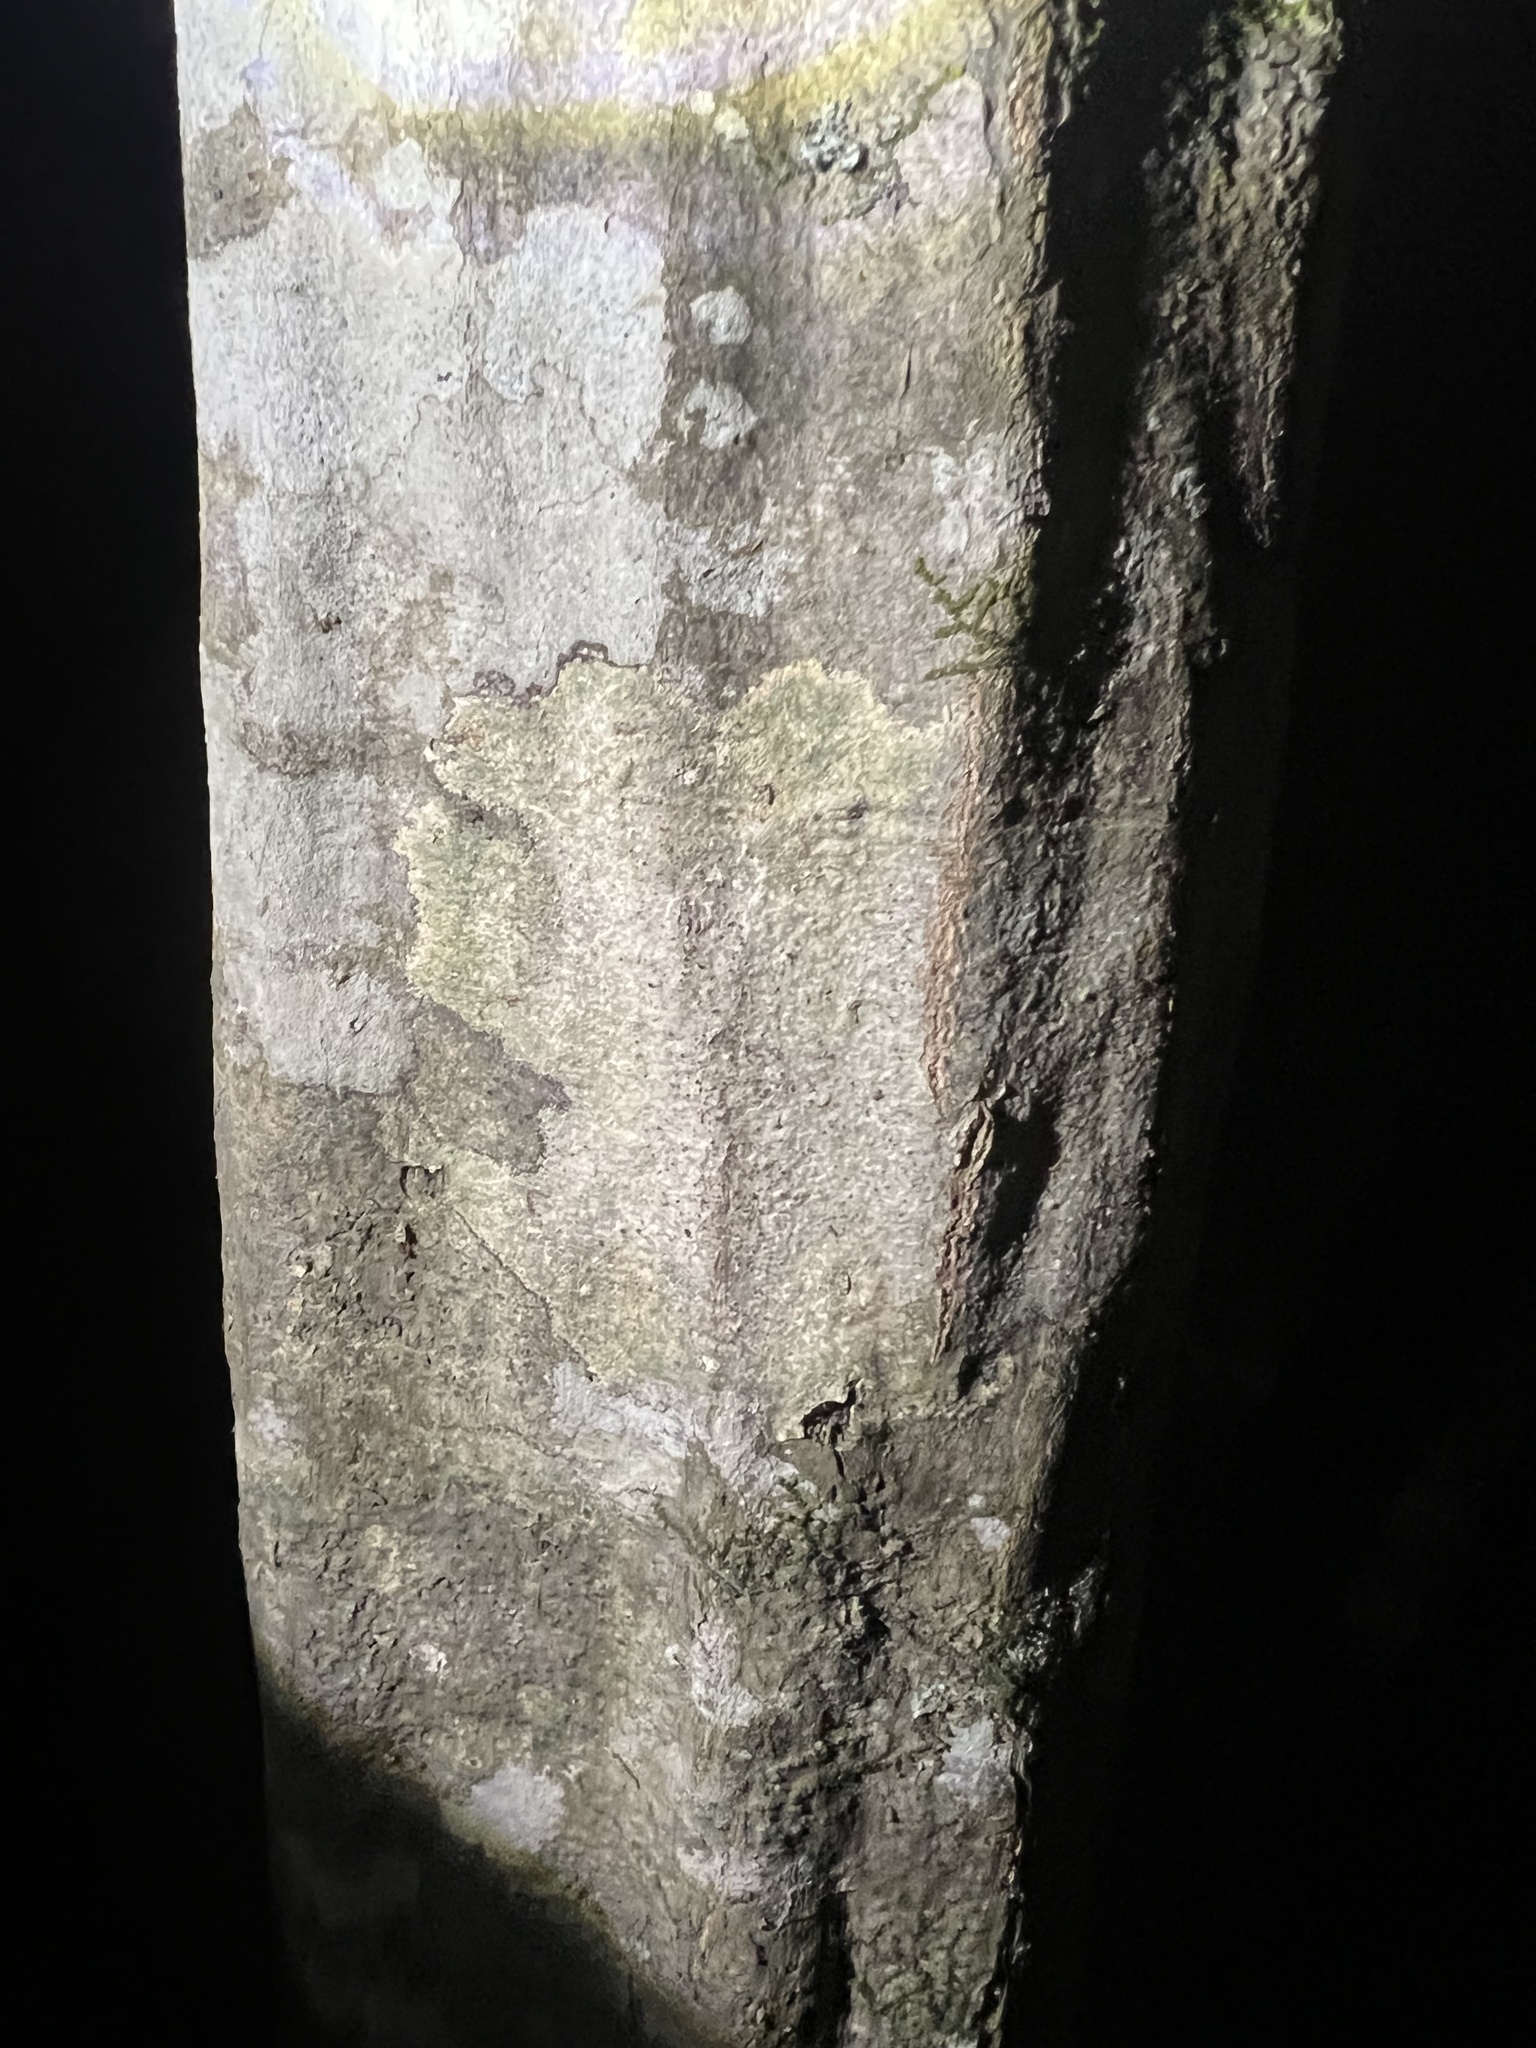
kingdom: Plantae
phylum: Tracheophyta
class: Magnoliopsida
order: Fagales
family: Betulaceae
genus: Carpinus
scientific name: Carpinus caroliniana
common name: American hornbeam
